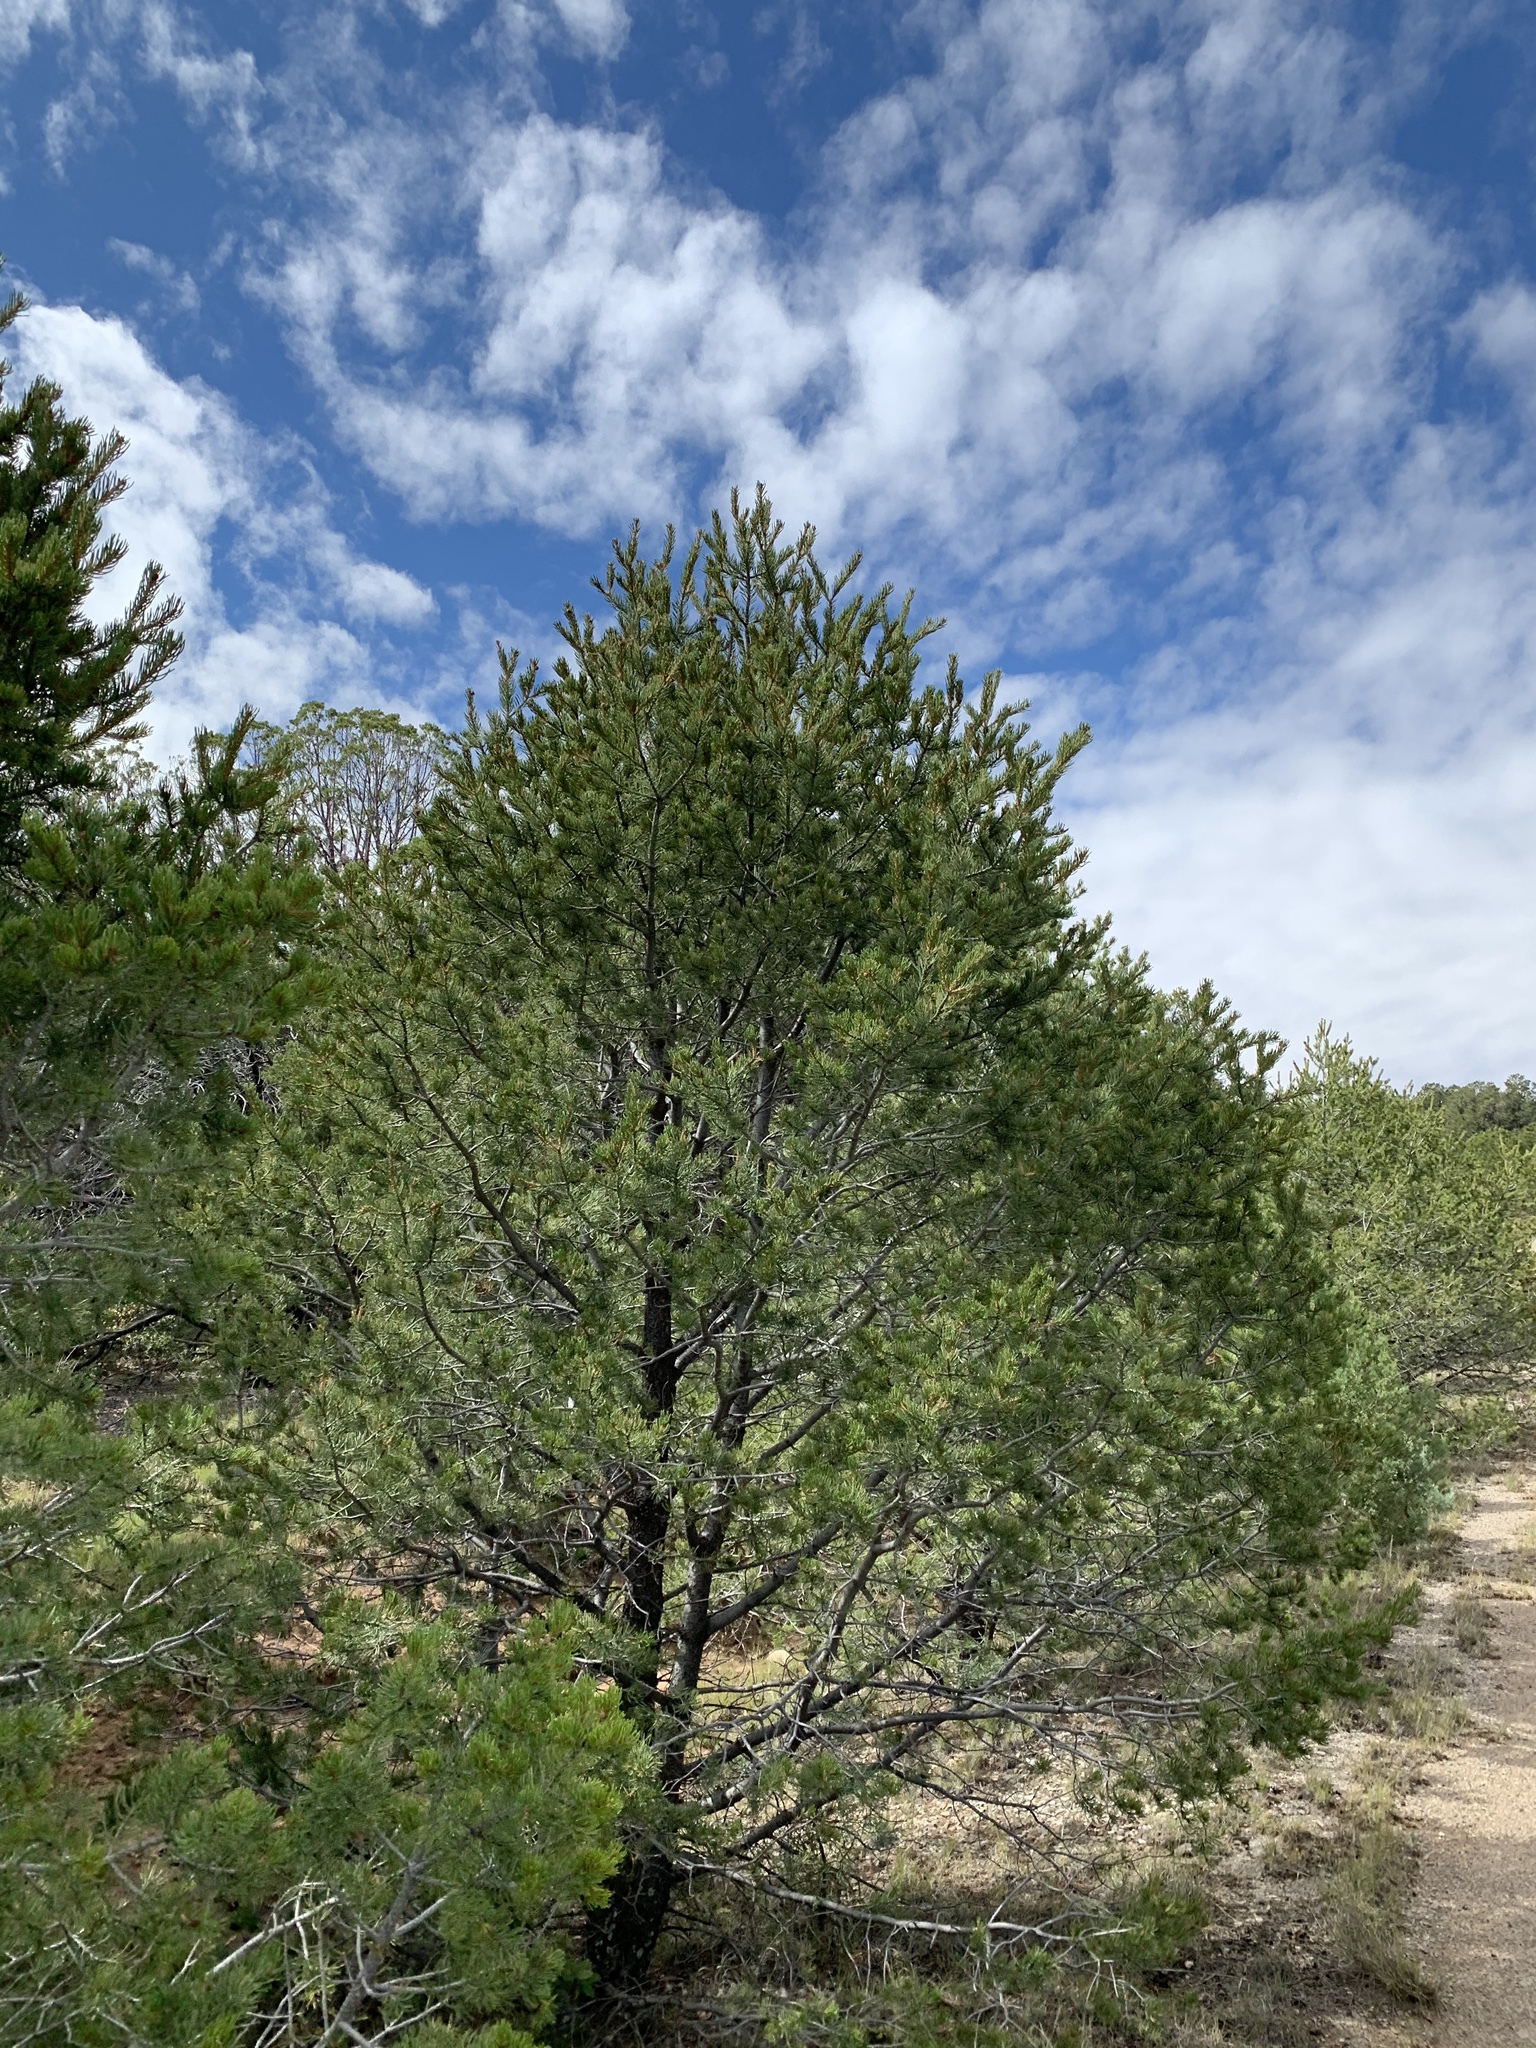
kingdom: Plantae
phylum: Tracheophyta
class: Pinopsida
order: Pinales
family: Pinaceae
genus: Pinus
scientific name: Pinus edulis
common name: Colorado pinyon
